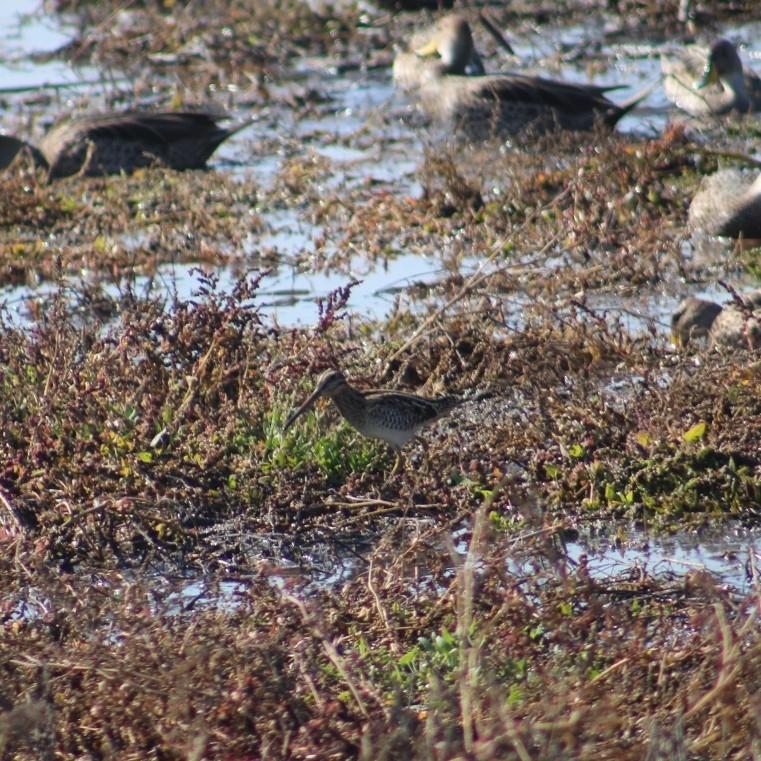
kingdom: Animalia
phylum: Chordata
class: Aves
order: Charadriiformes
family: Scolopacidae
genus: Gallinago
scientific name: Gallinago magellanica
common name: Magellanic snipe
